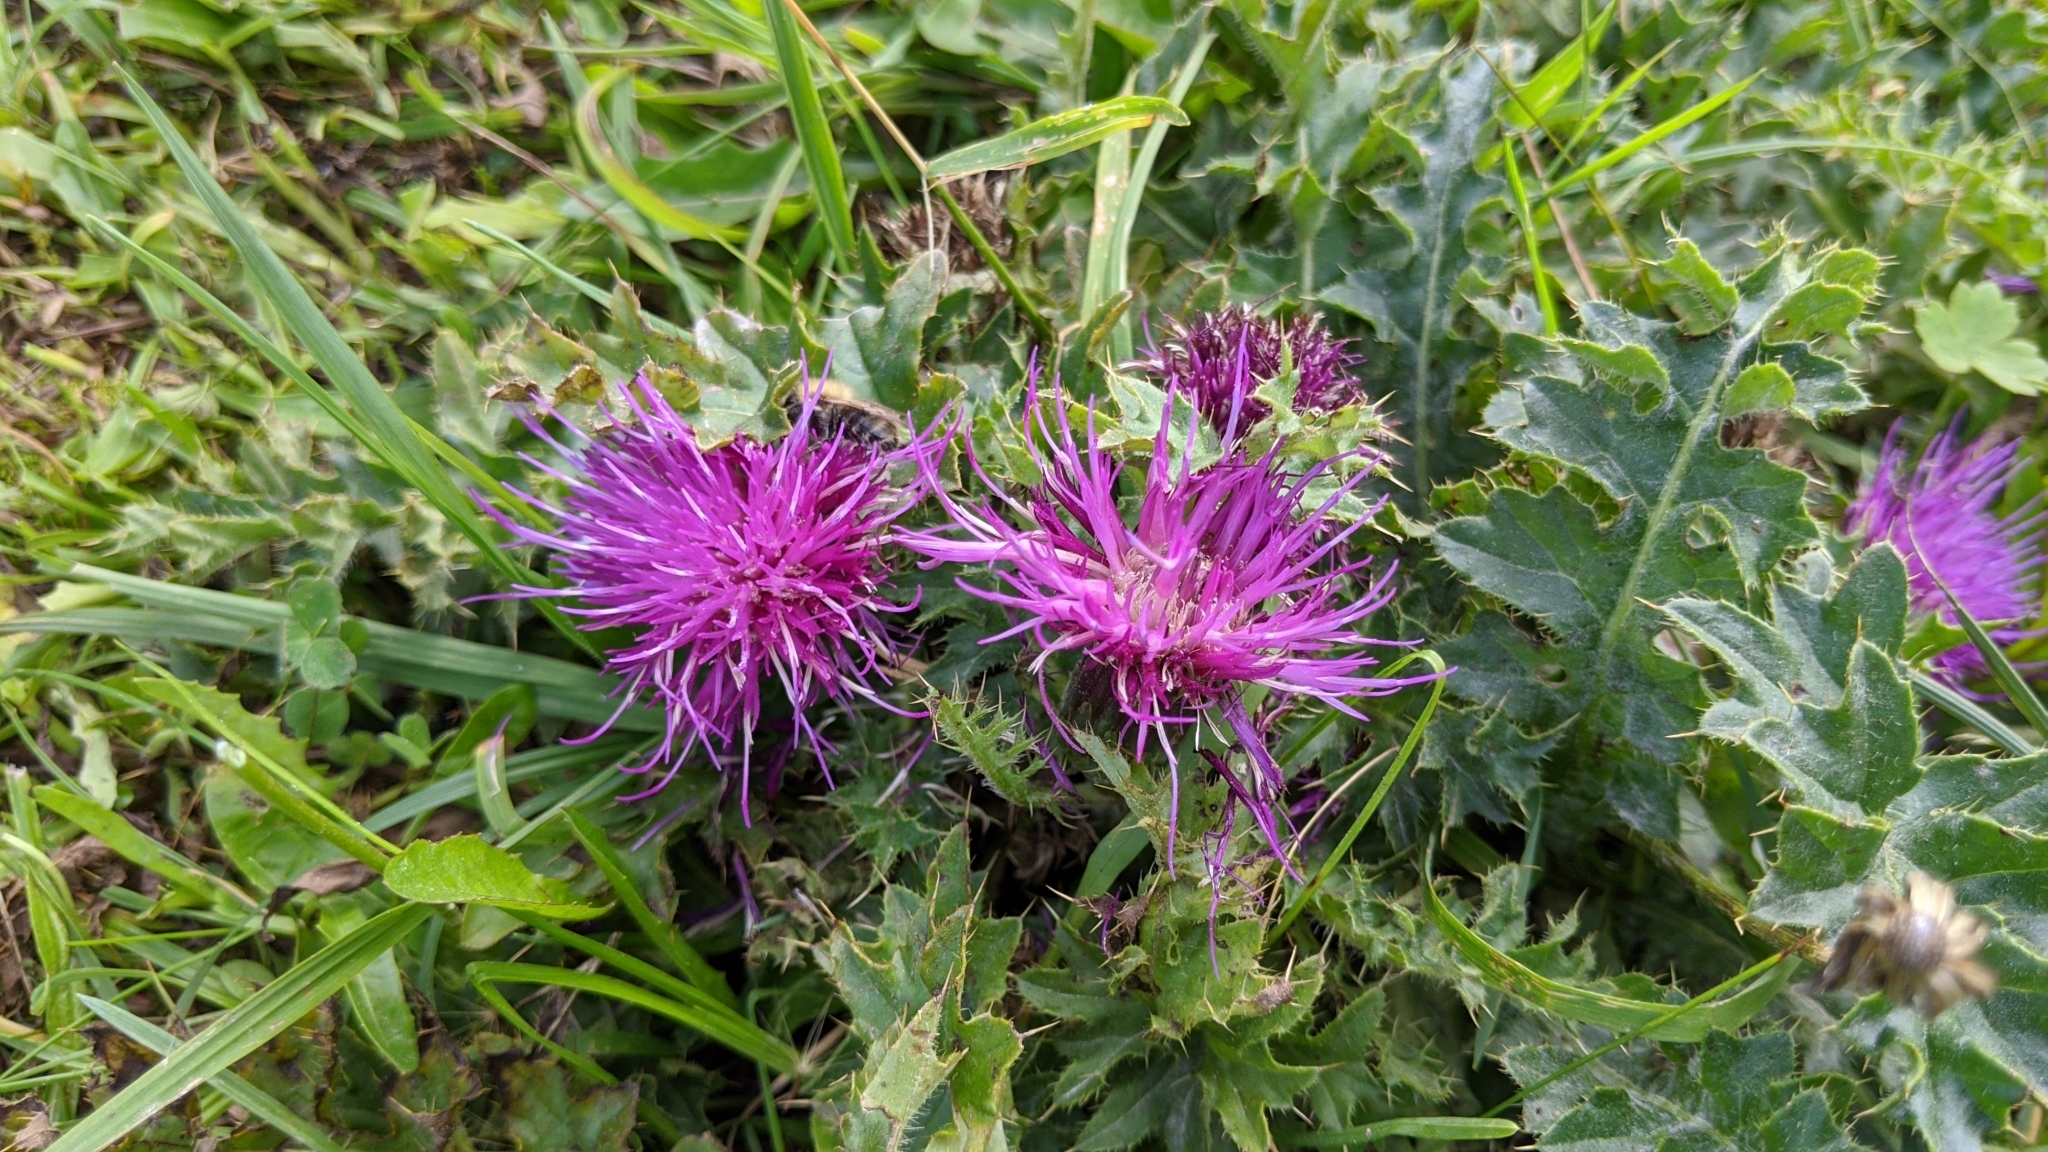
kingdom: Plantae
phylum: Tracheophyta
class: Magnoliopsida
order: Asterales
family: Asteraceae
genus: Cirsium
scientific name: Cirsium acaulon
